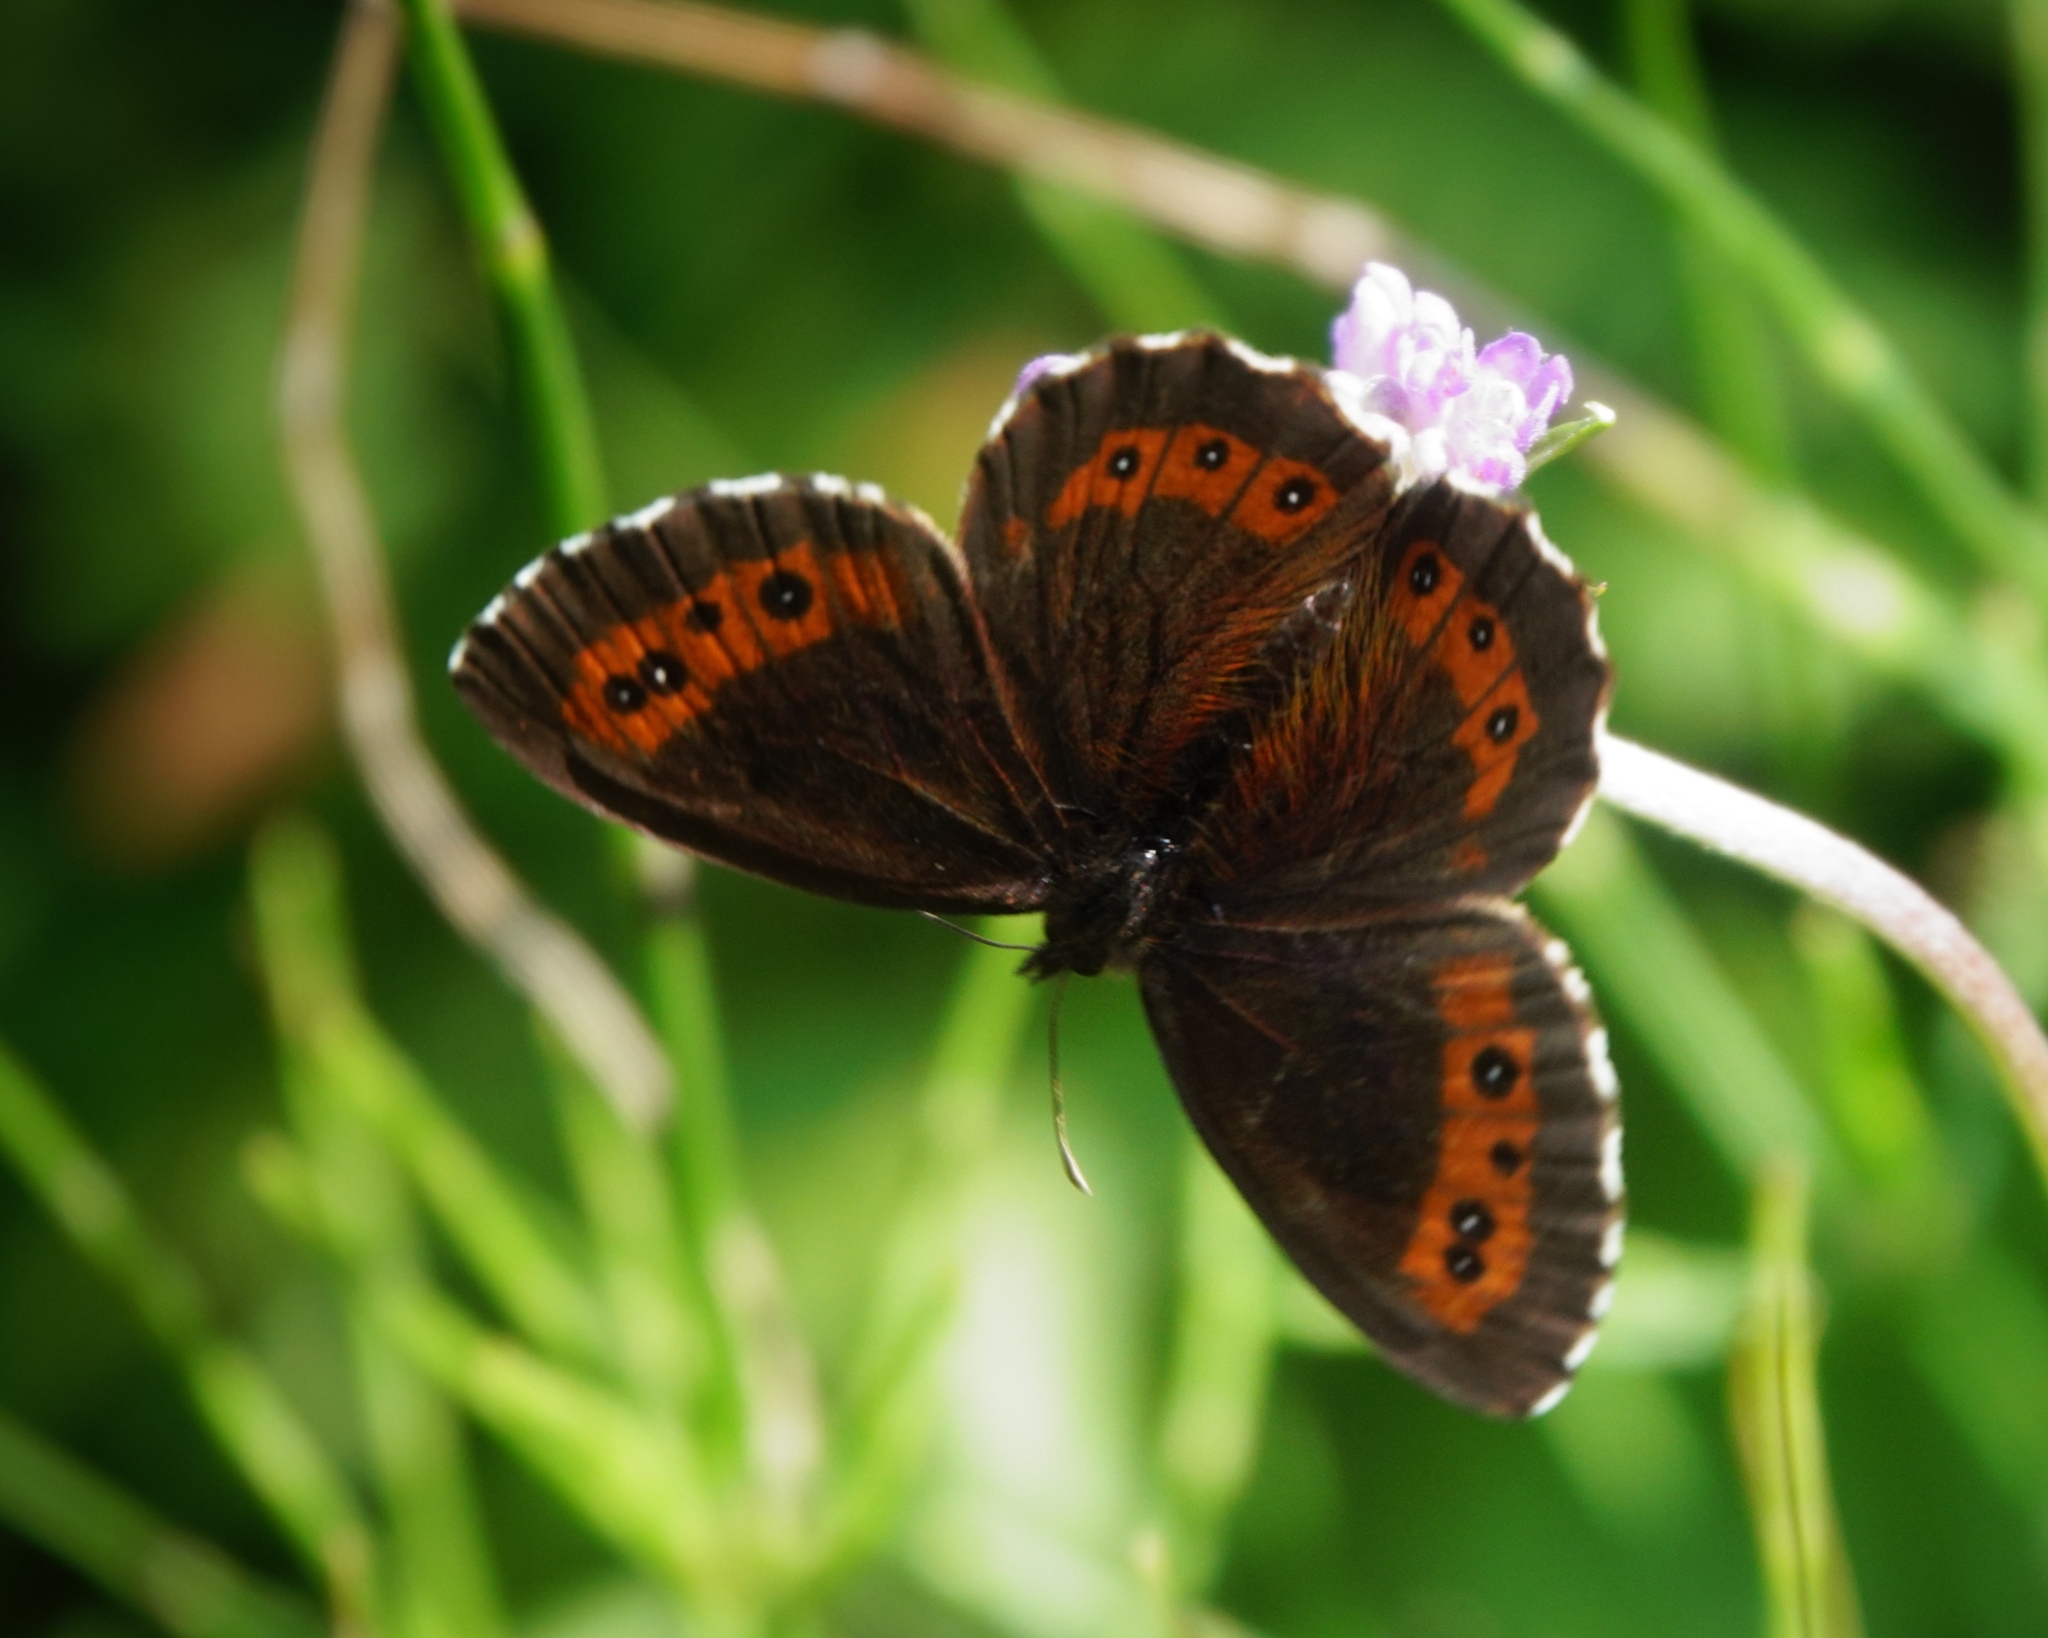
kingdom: Animalia
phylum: Arthropoda
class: Insecta
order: Lepidoptera
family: Nymphalidae
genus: Erebia
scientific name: Erebia ligea
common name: Arran brown
